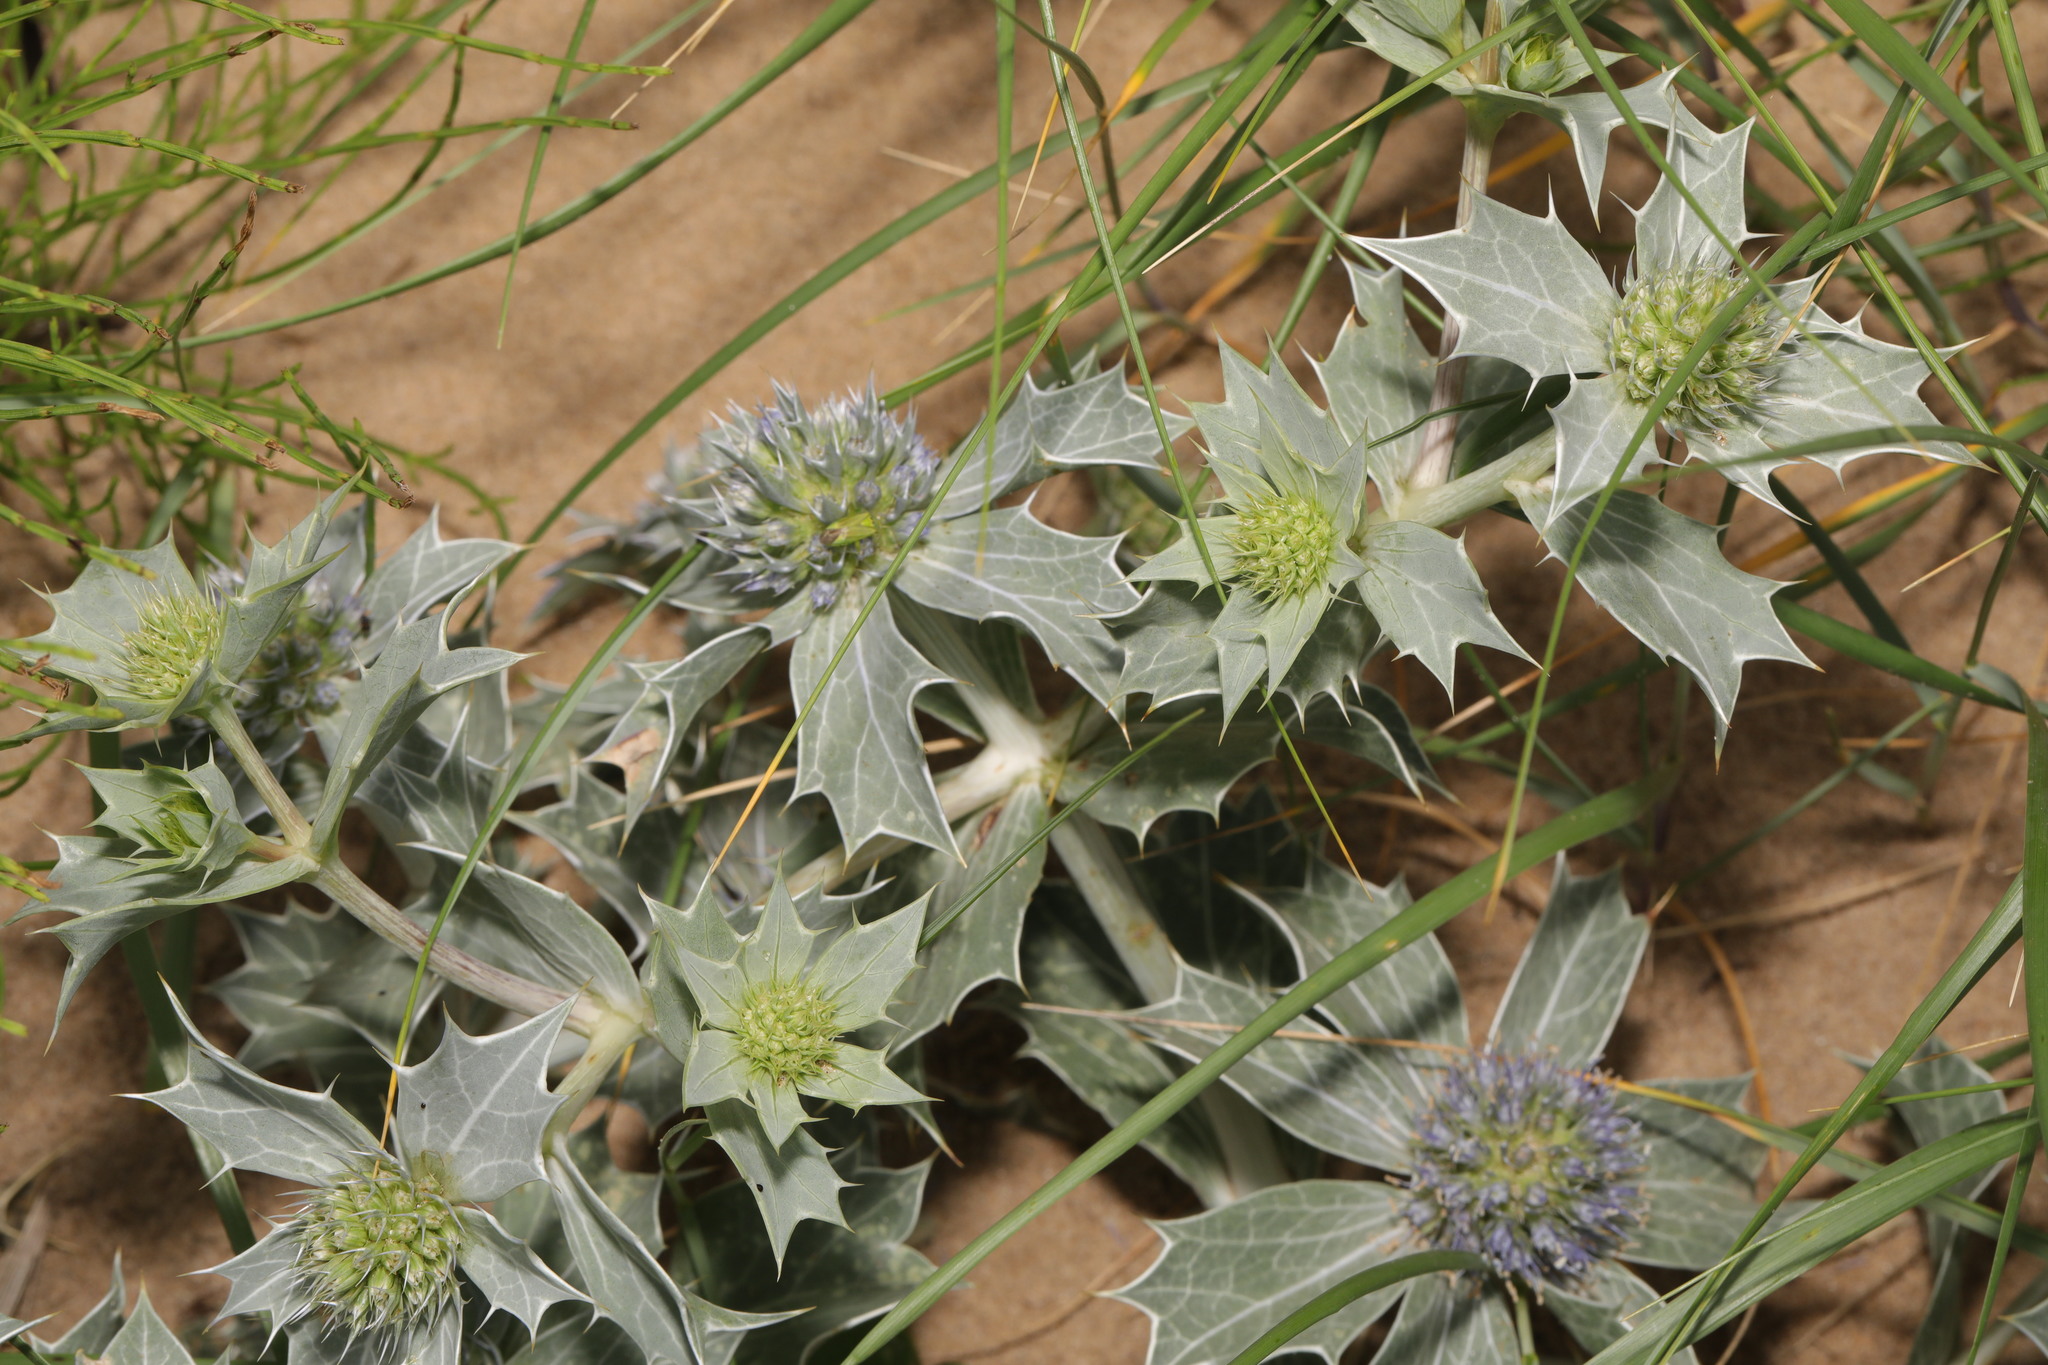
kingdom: Plantae
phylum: Tracheophyta
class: Magnoliopsida
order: Apiales
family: Apiaceae
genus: Eryngium
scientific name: Eryngium maritimum
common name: Sea-holly
